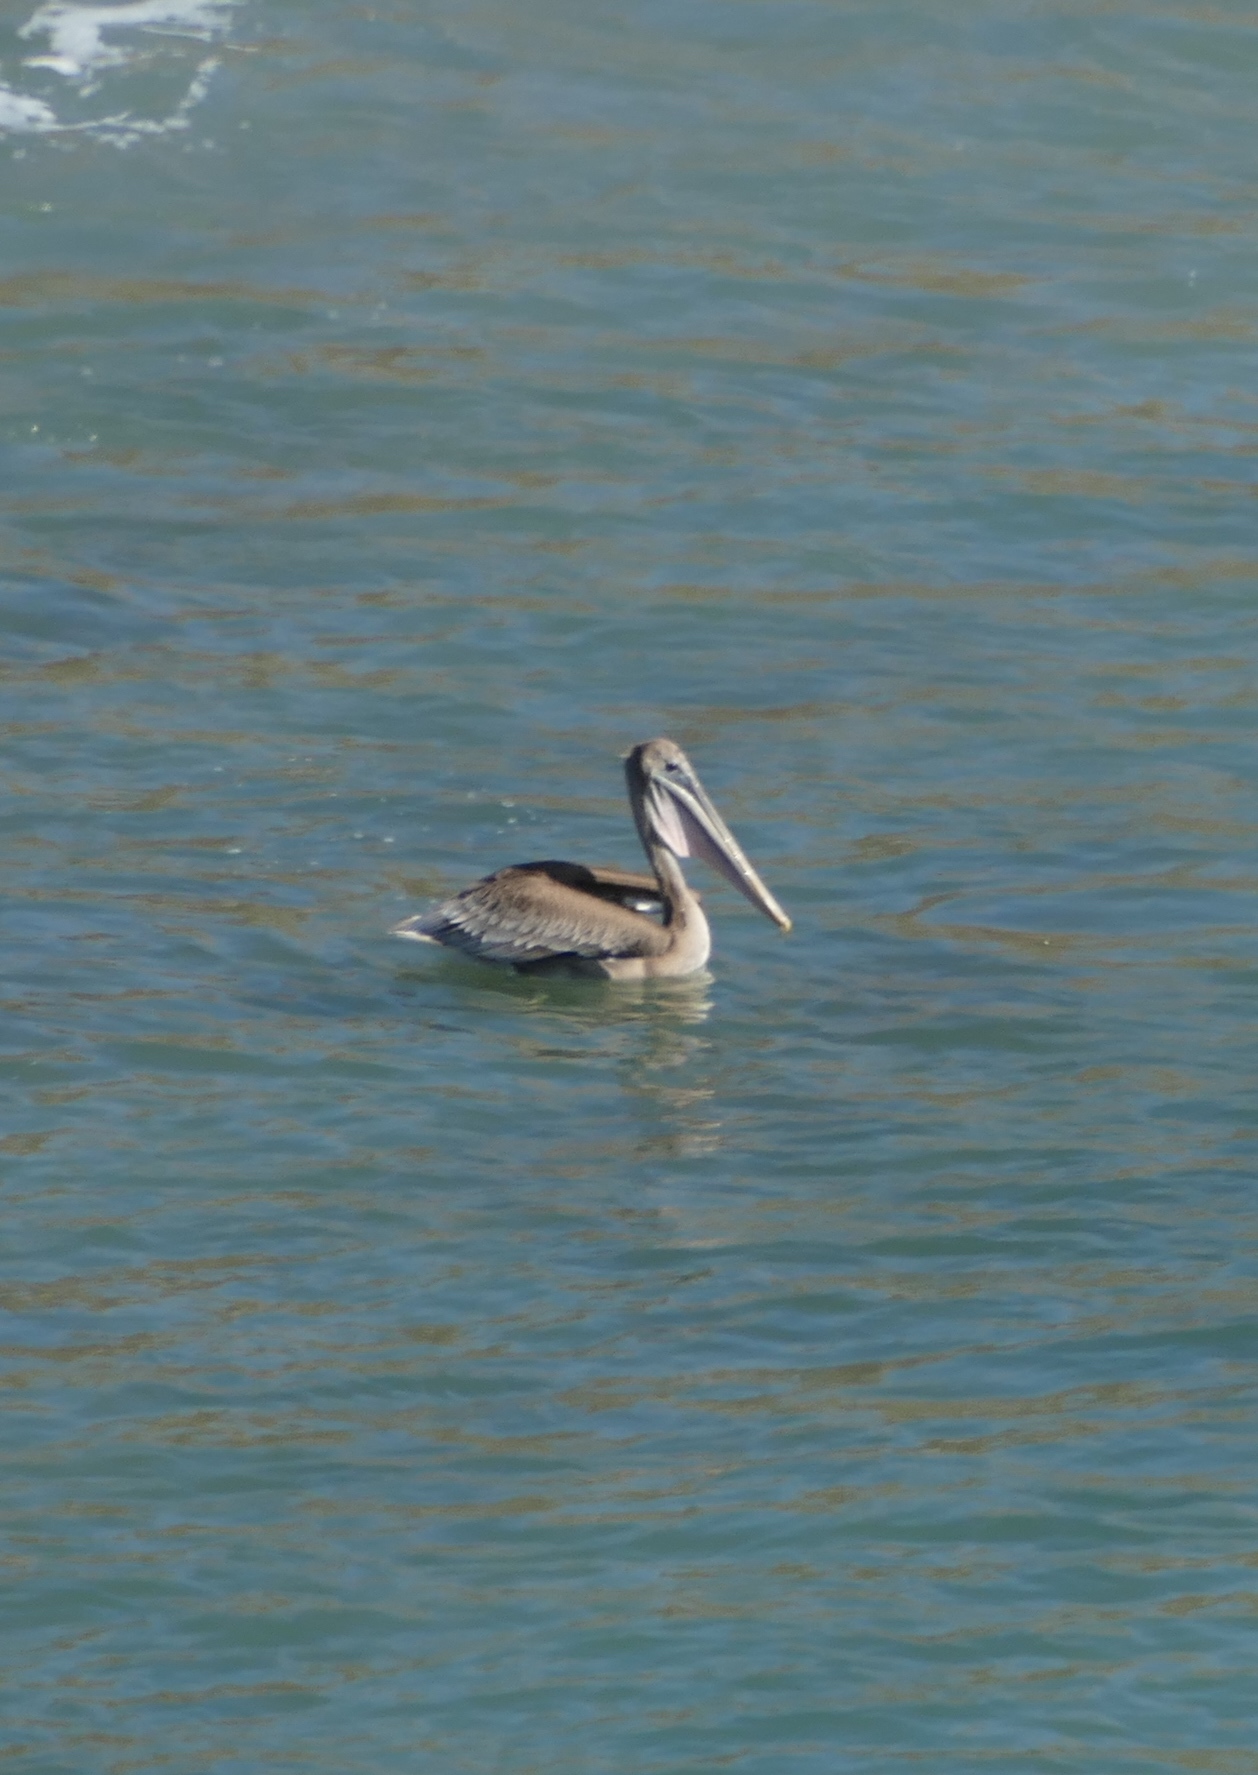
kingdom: Animalia
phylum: Chordata
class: Aves
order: Pelecaniformes
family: Pelecanidae
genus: Pelecanus
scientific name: Pelecanus occidentalis
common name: Brown pelican
